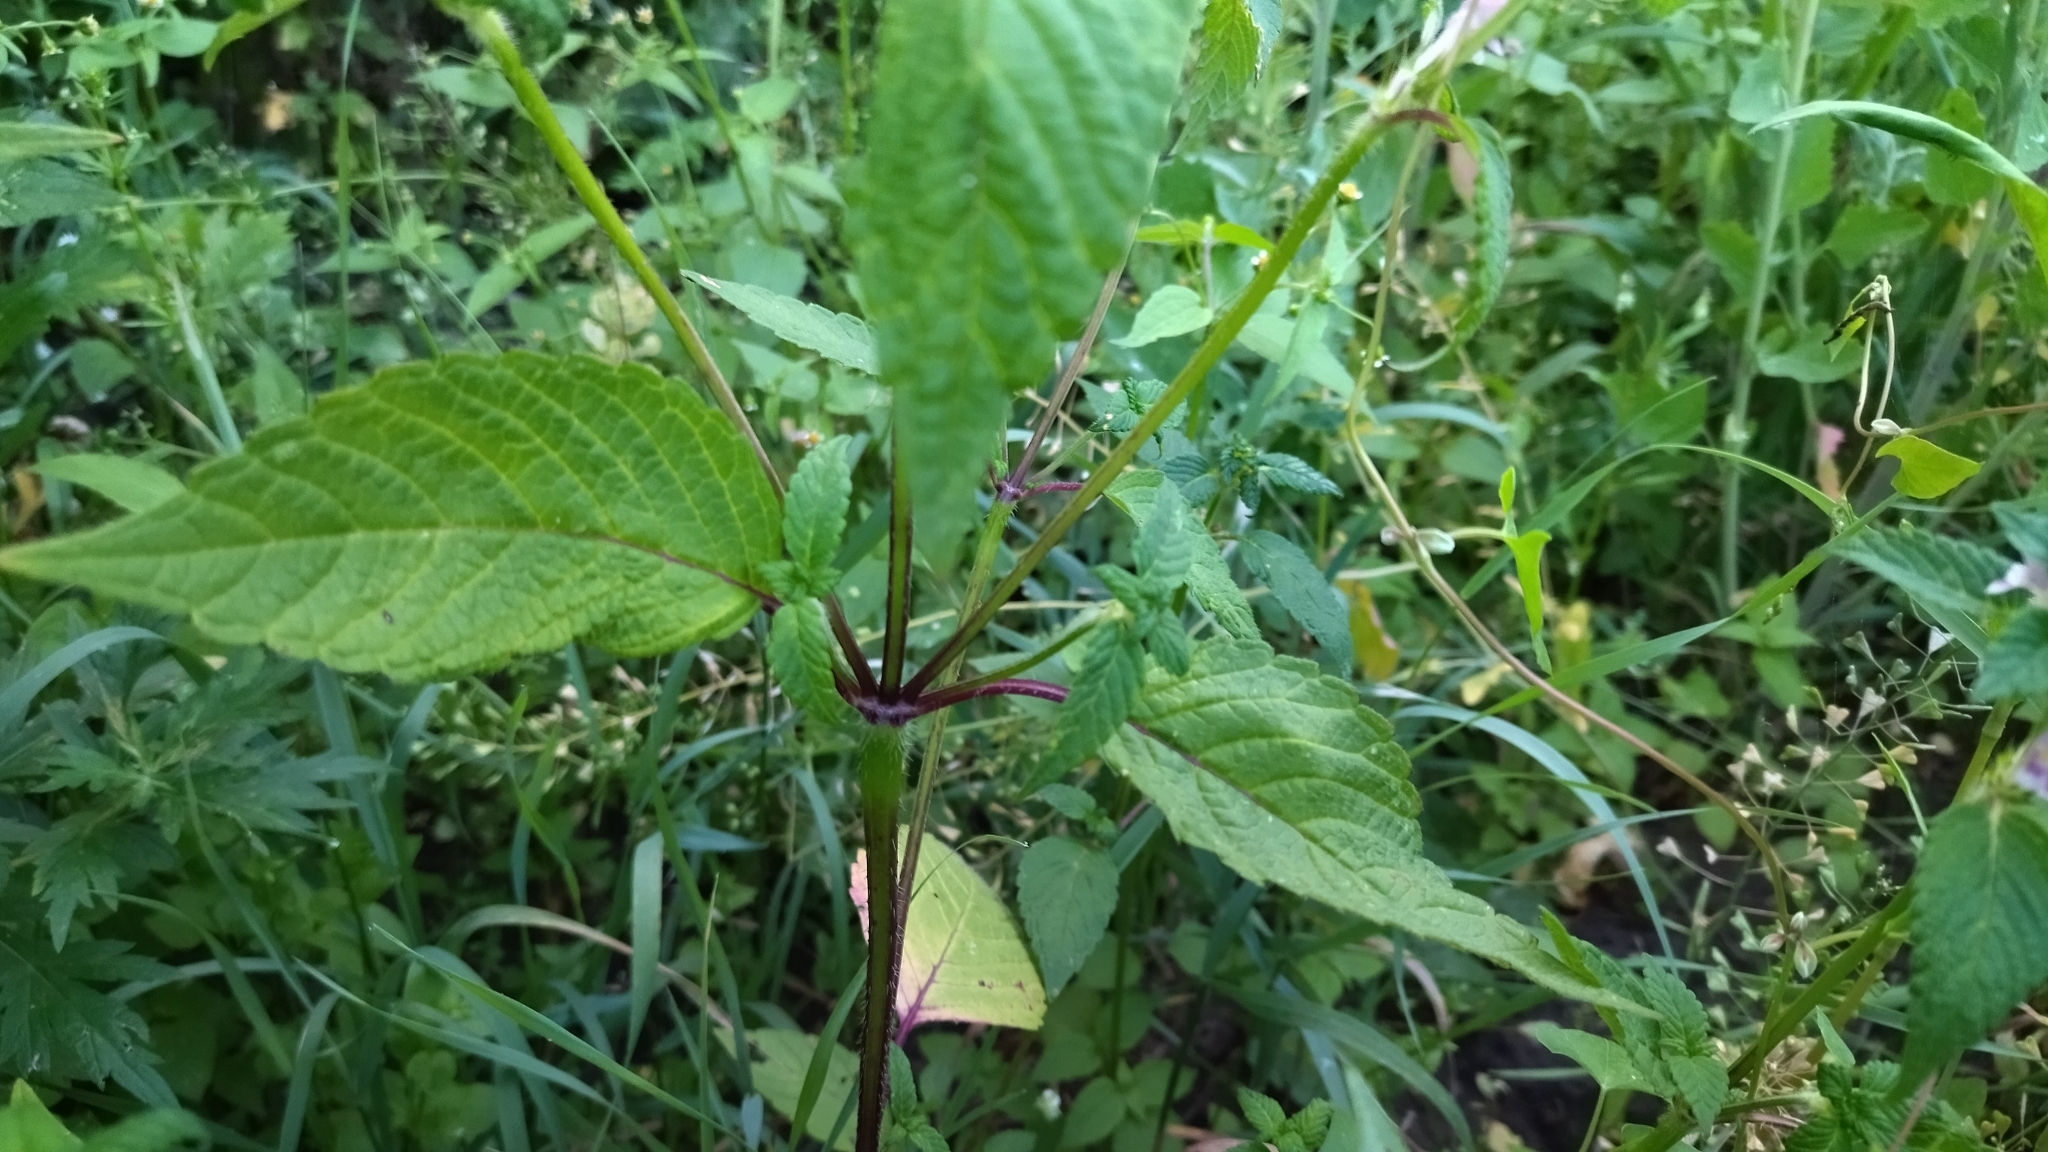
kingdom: Plantae
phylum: Tracheophyta
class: Magnoliopsida
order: Lamiales
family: Lamiaceae
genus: Galeopsis
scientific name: Galeopsis tetrahit
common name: Common hemp-nettle
